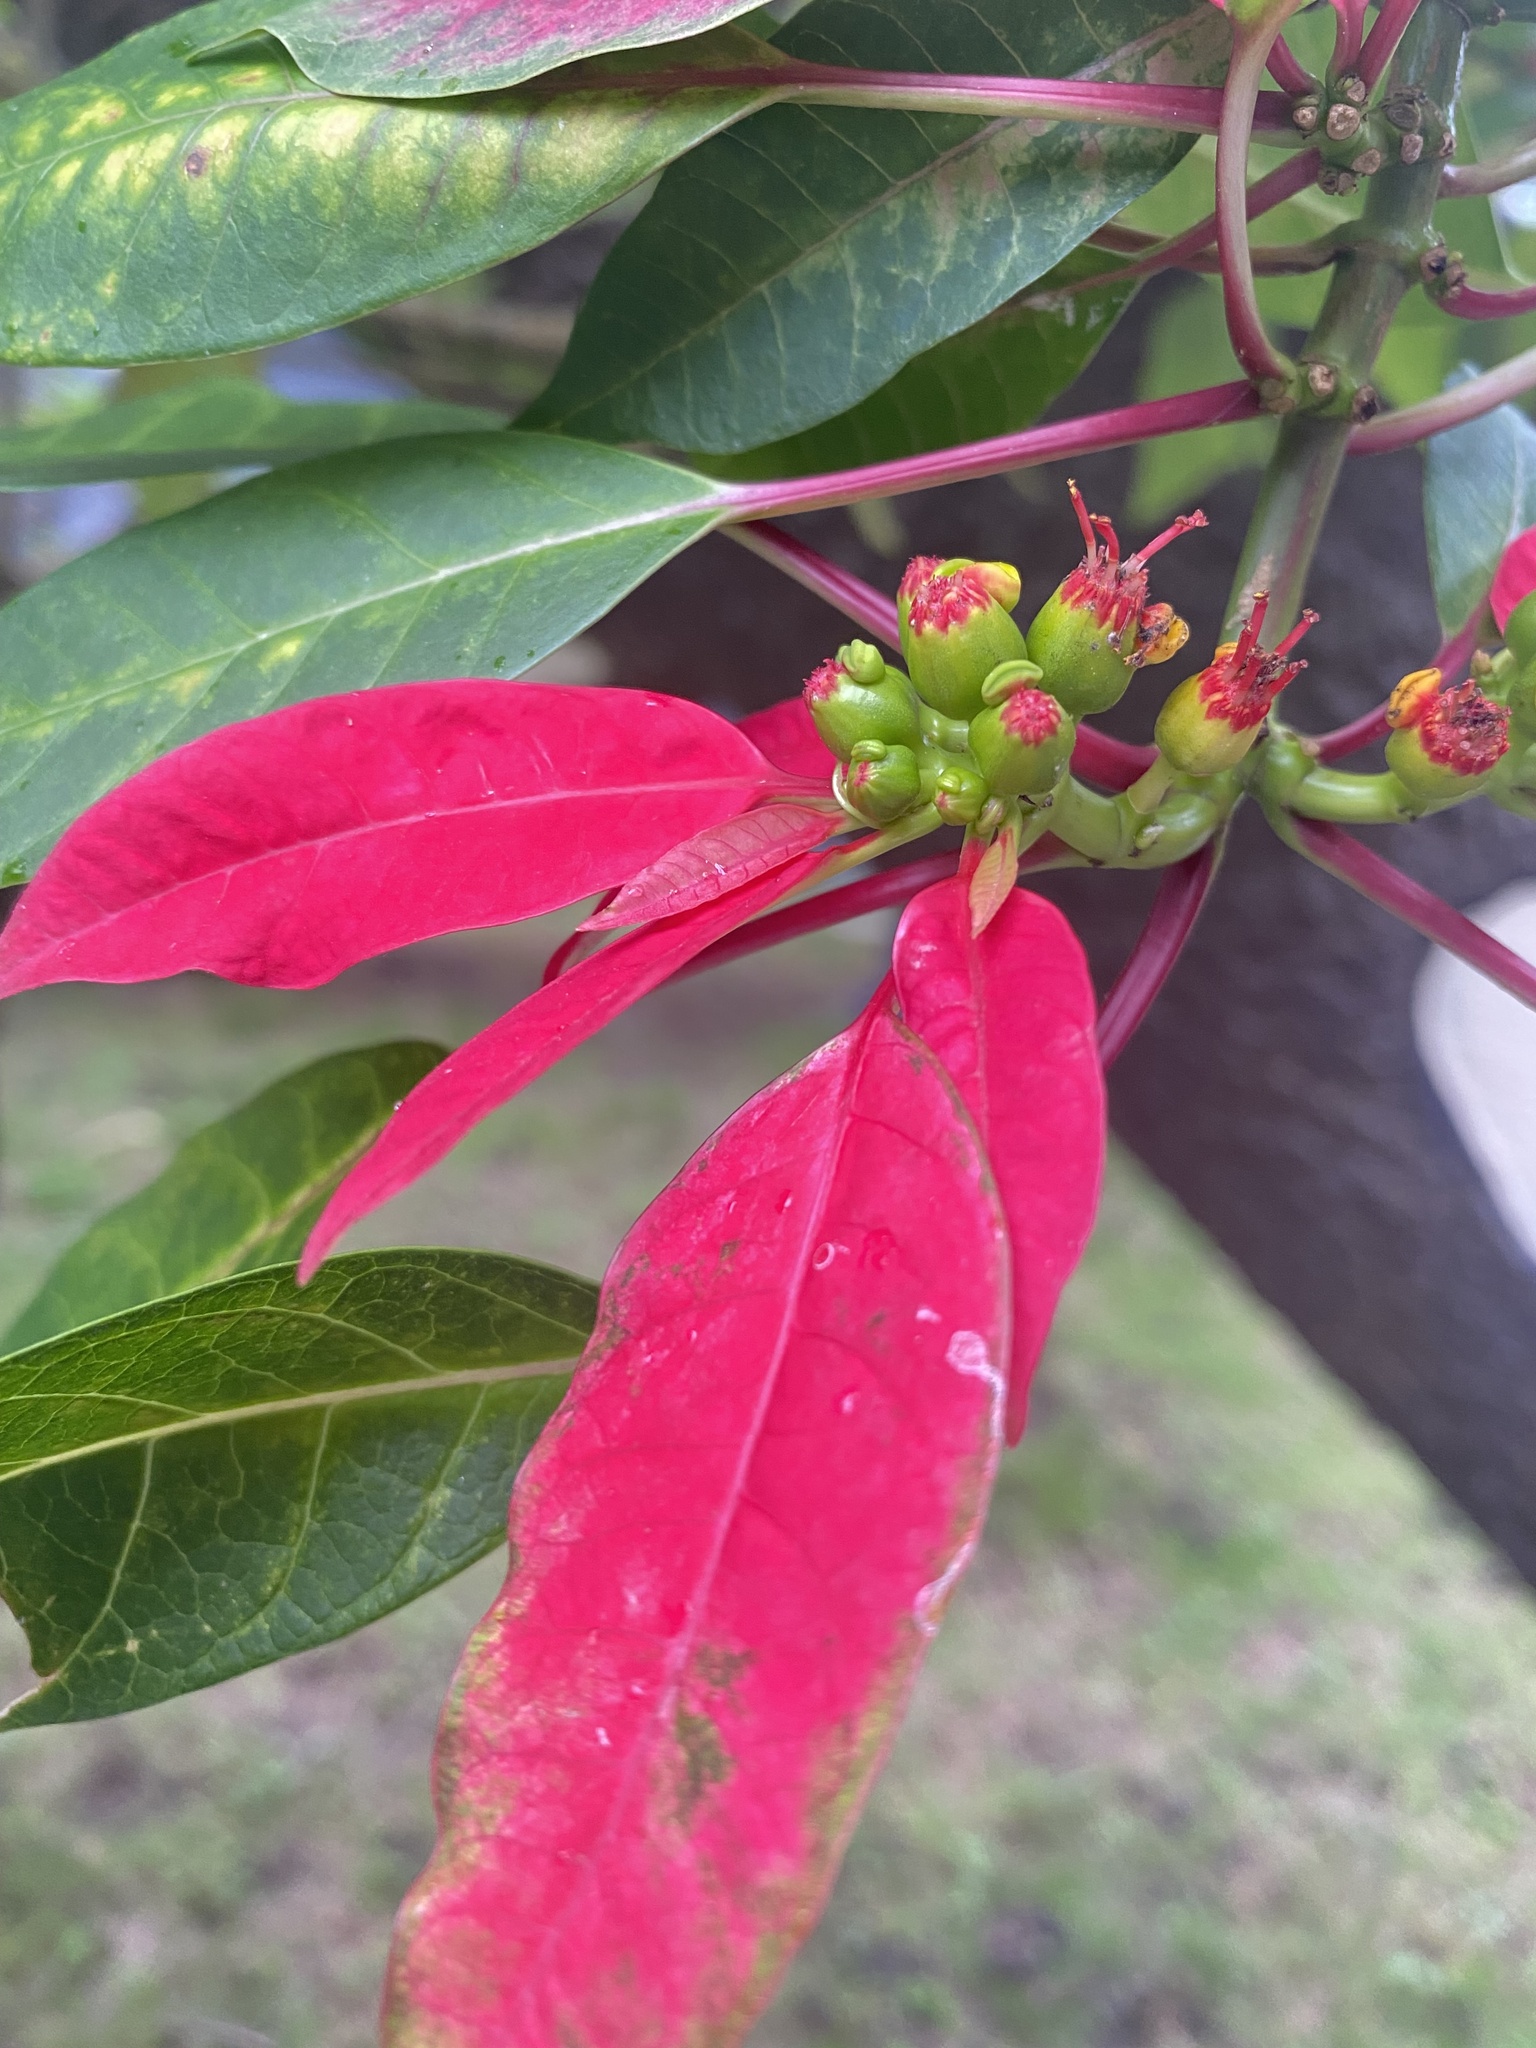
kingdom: Plantae
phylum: Tracheophyta
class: Magnoliopsida
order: Malpighiales
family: Euphorbiaceae
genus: Euphorbia
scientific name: Euphorbia pulcherrima
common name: Christmas-flower
